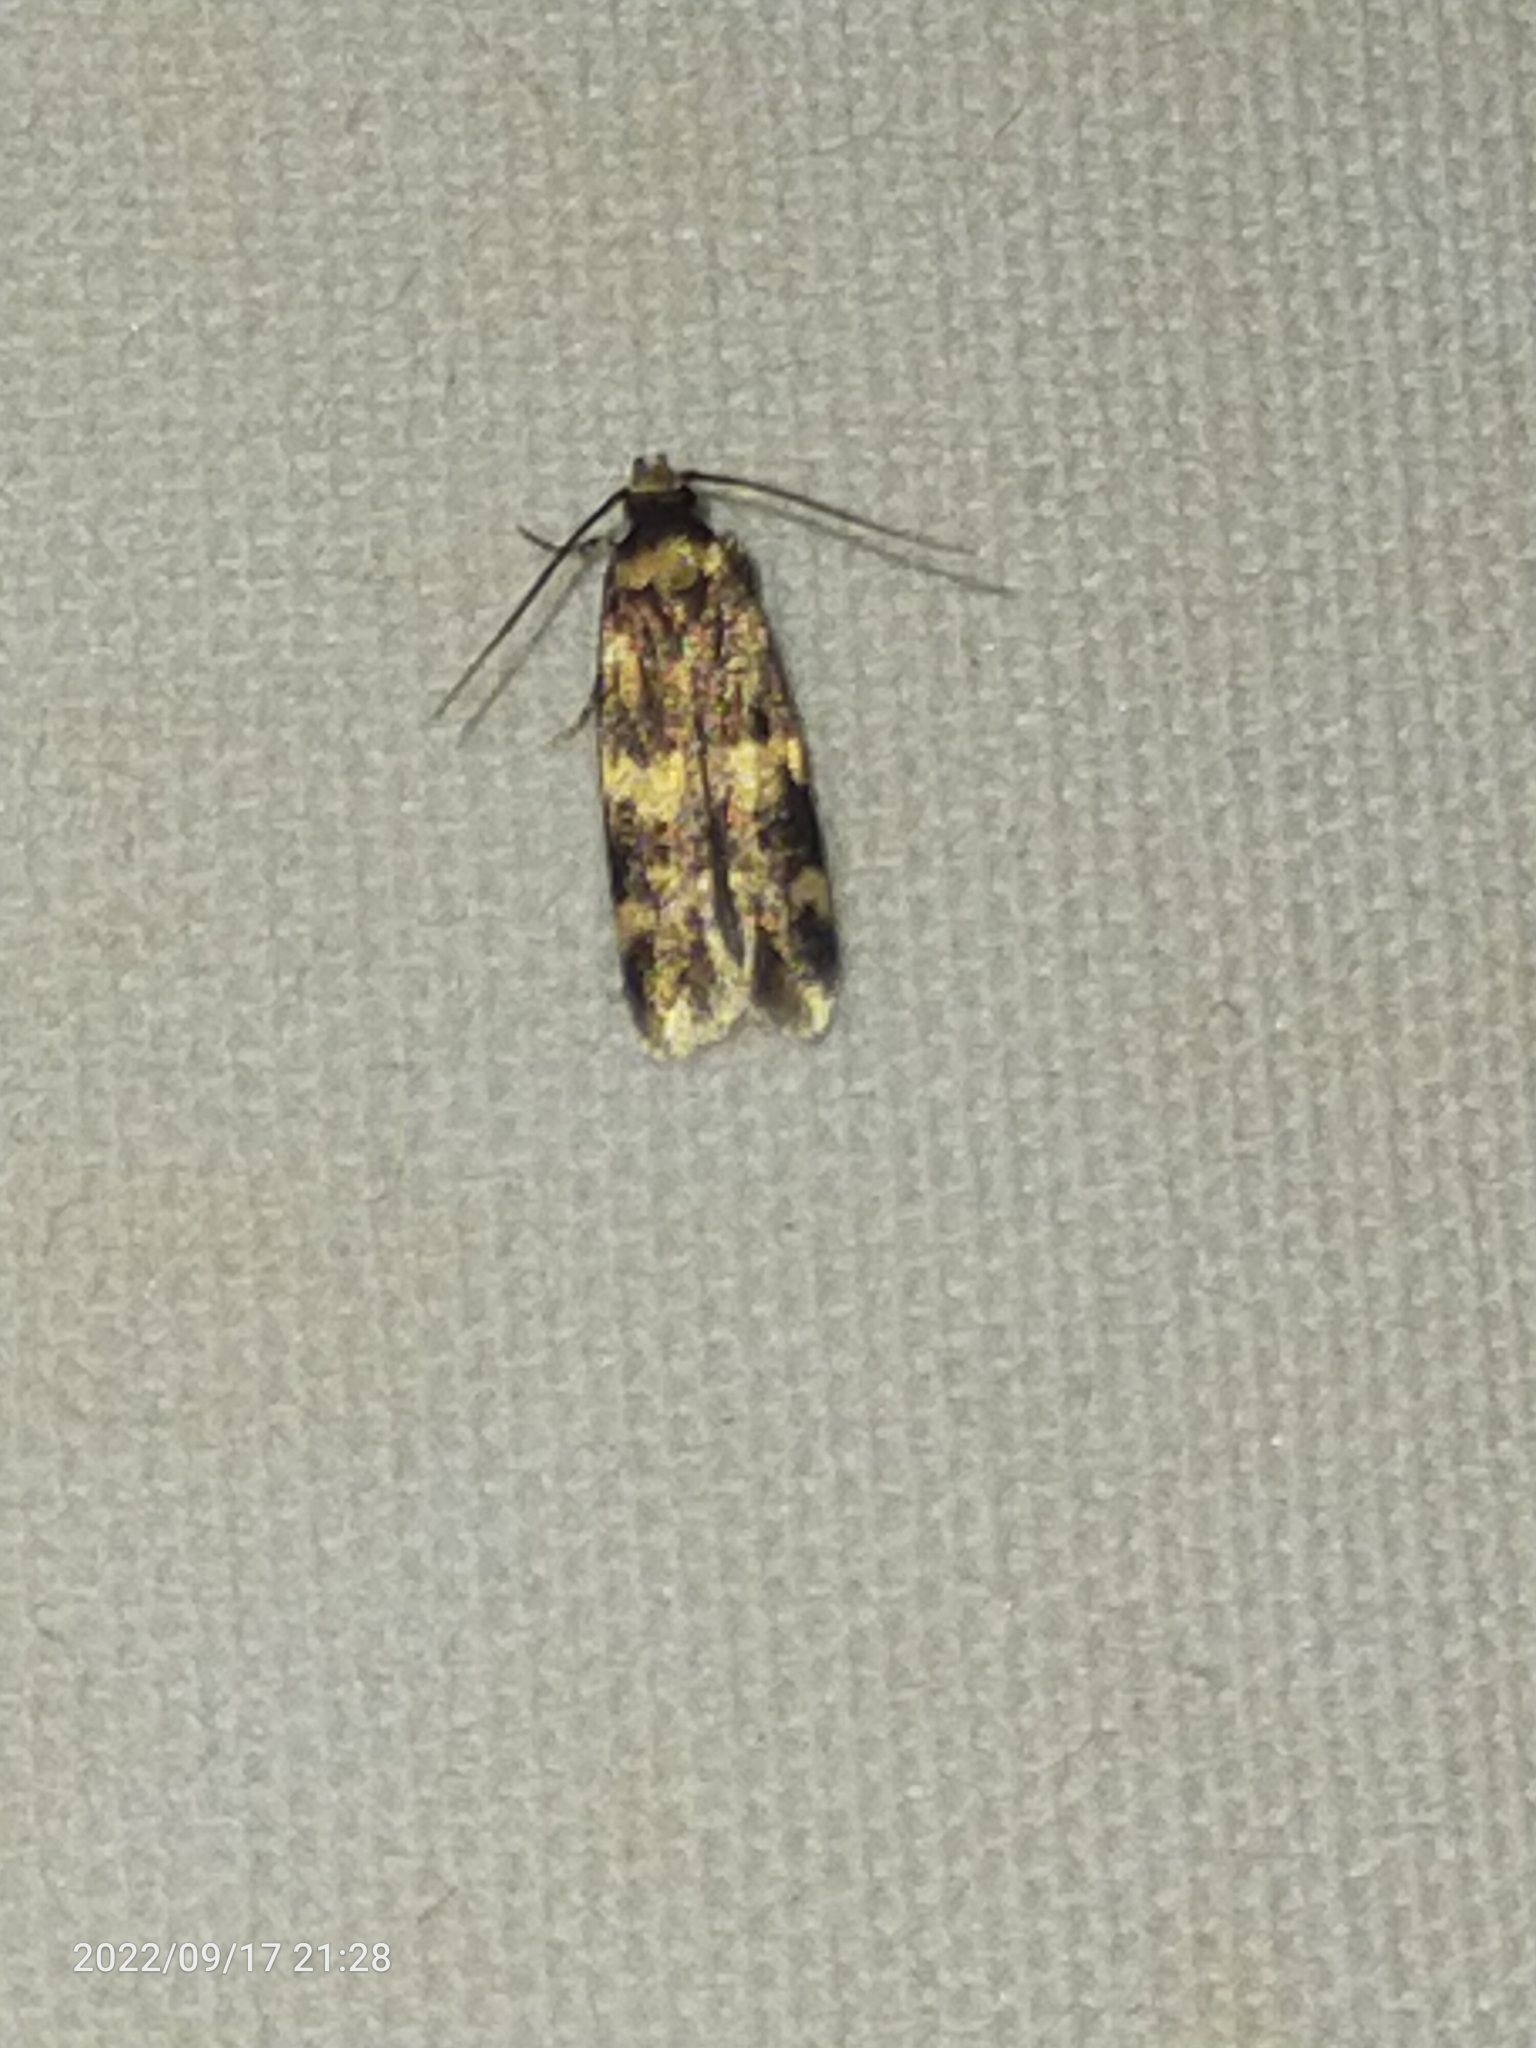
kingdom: Animalia
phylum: Arthropoda
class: Insecta
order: Lepidoptera
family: Autostichidae
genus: Oegoconia
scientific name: Oegoconia
